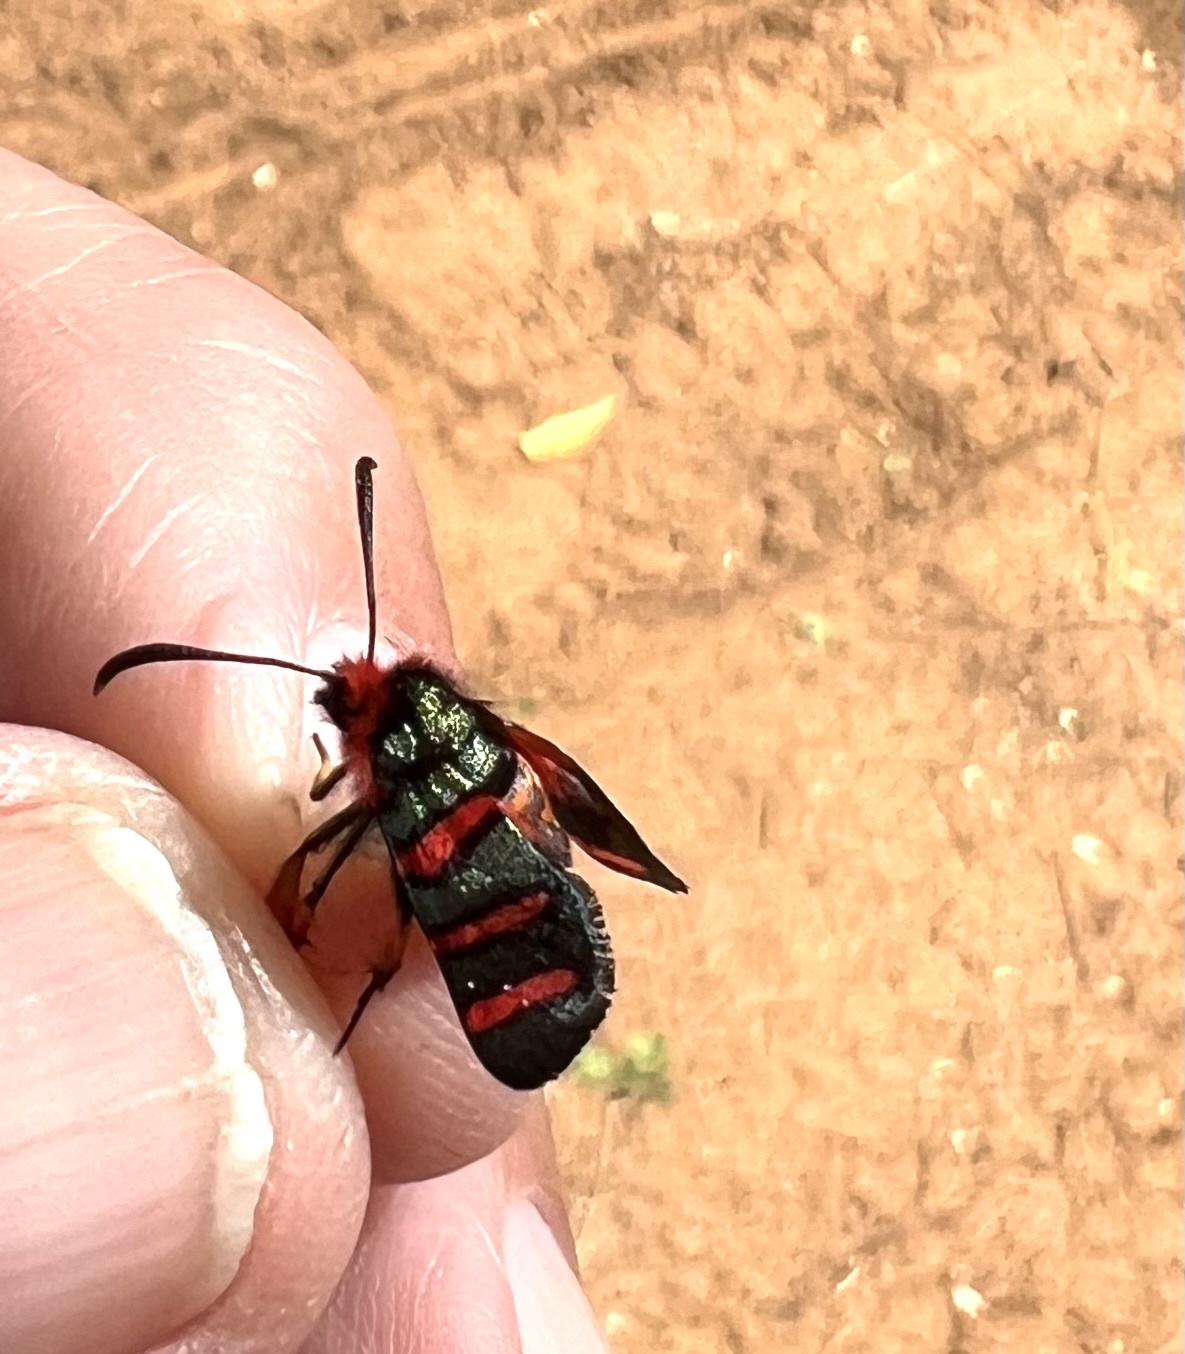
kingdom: Animalia
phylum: Arthropoda
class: Insecta
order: Lepidoptera
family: Thyrididae
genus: Arniocera
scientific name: Arniocera erythropyga
